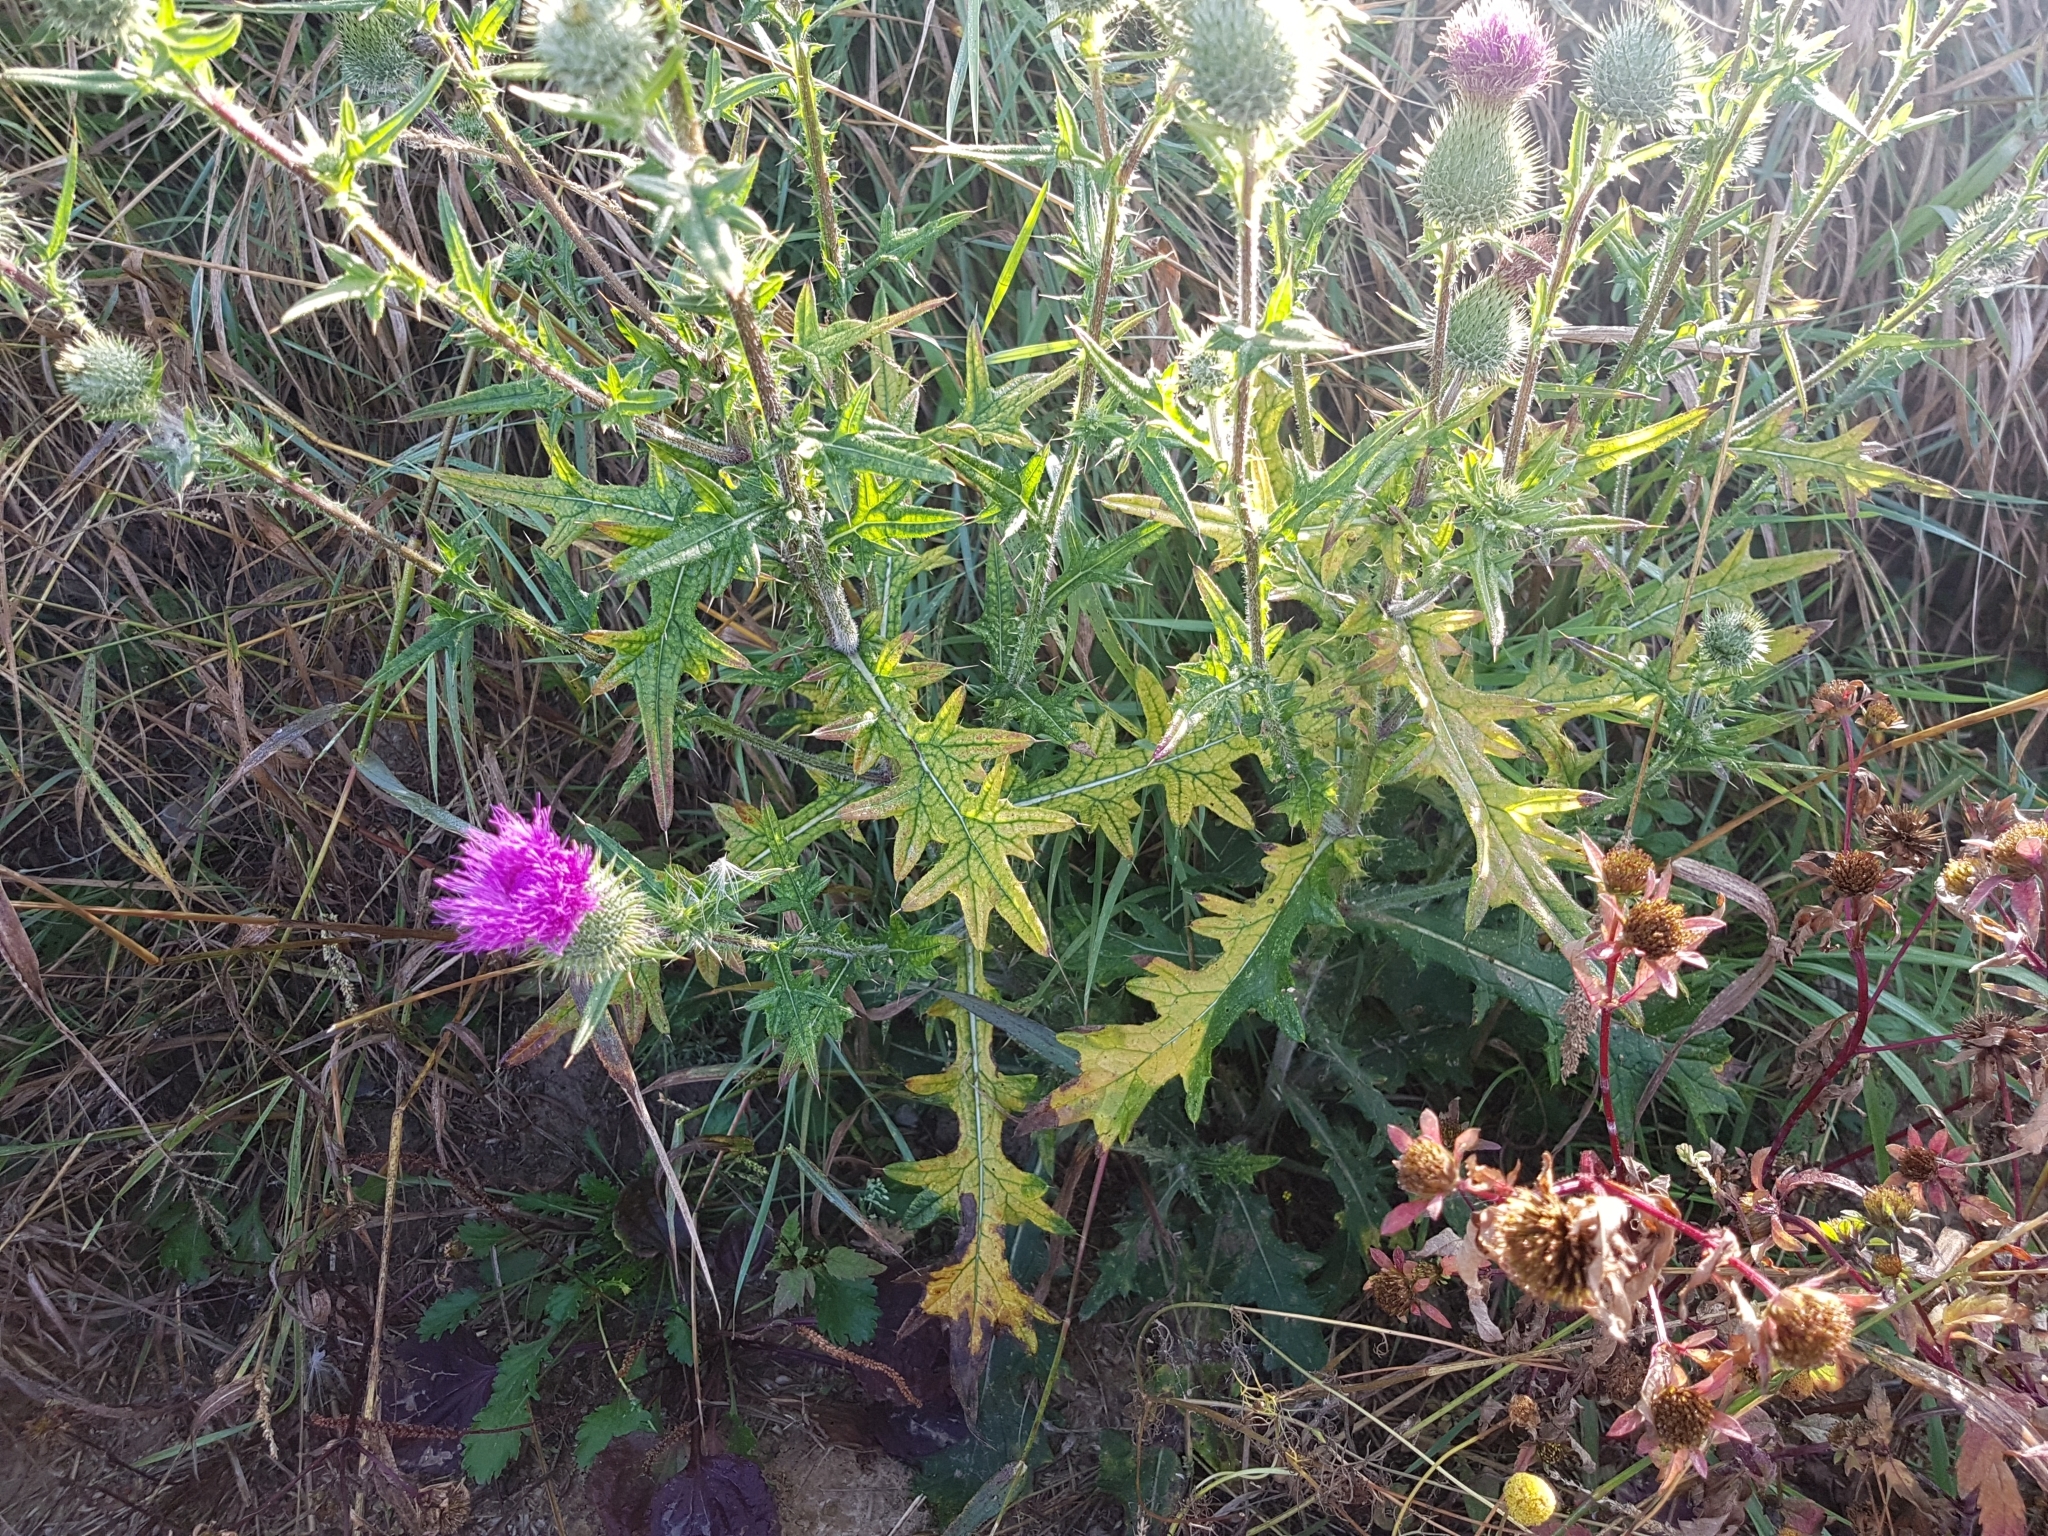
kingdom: Plantae
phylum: Tracheophyta
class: Magnoliopsida
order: Asterales
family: Asteraceae
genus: Cirsium
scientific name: Cirsium vulgare
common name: Bull thistle
